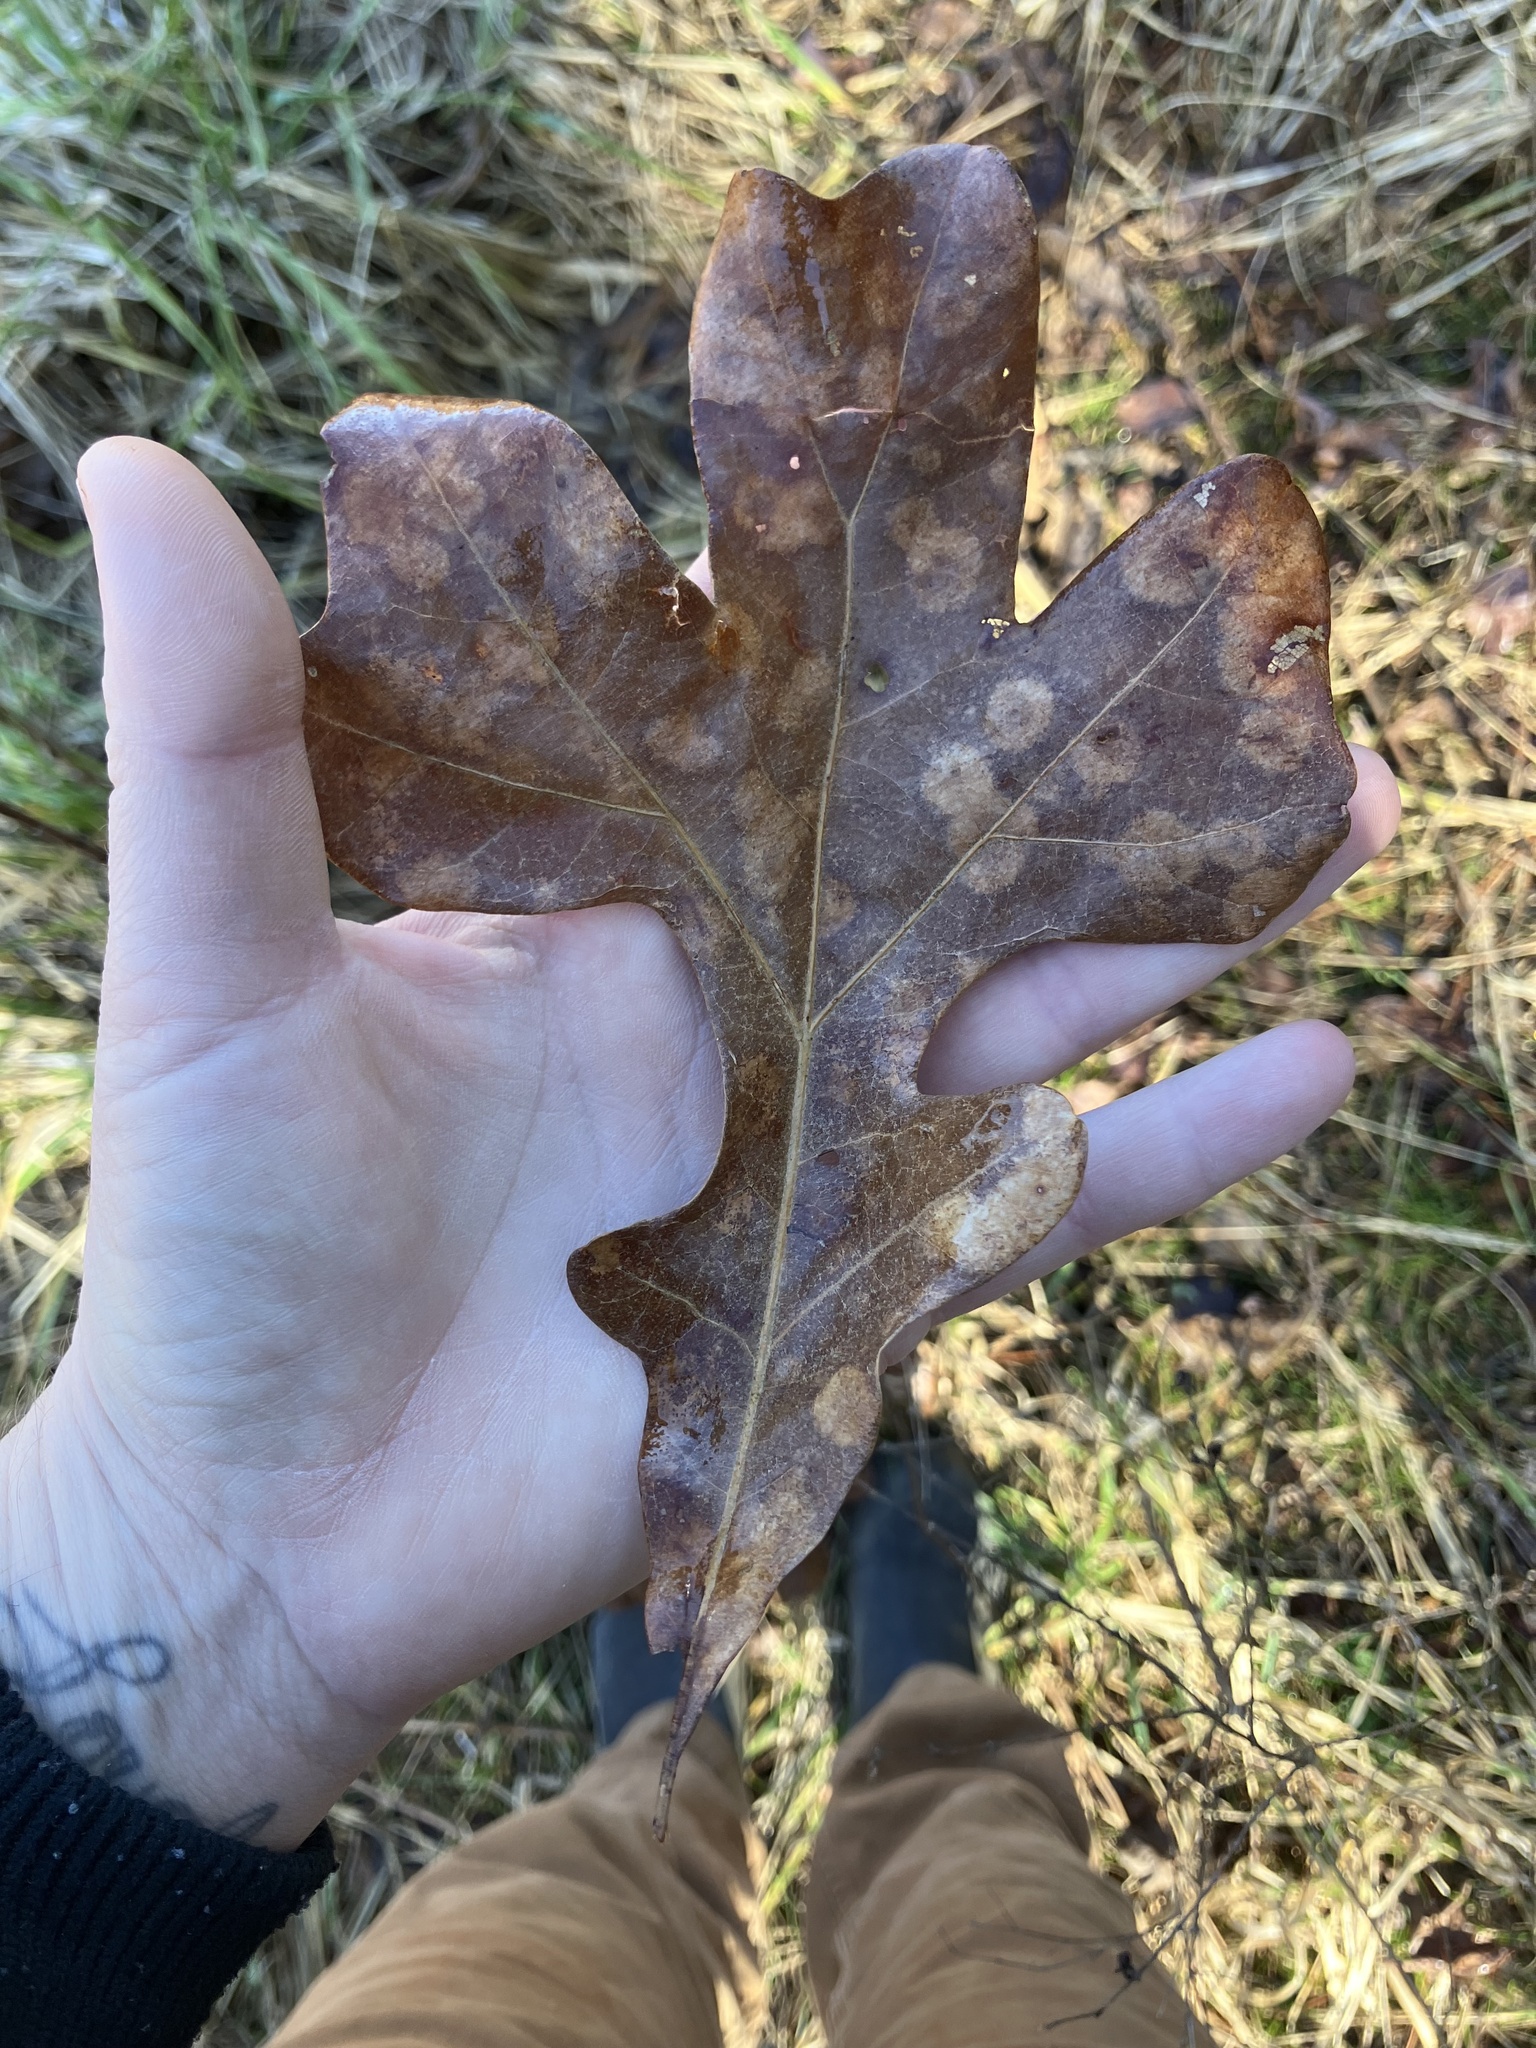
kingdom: Plantae
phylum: Tracheophyta
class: Magnoliopsida
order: Fagales
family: Fagaceae
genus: Quercus
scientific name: Quercus stellata
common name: Post oak
